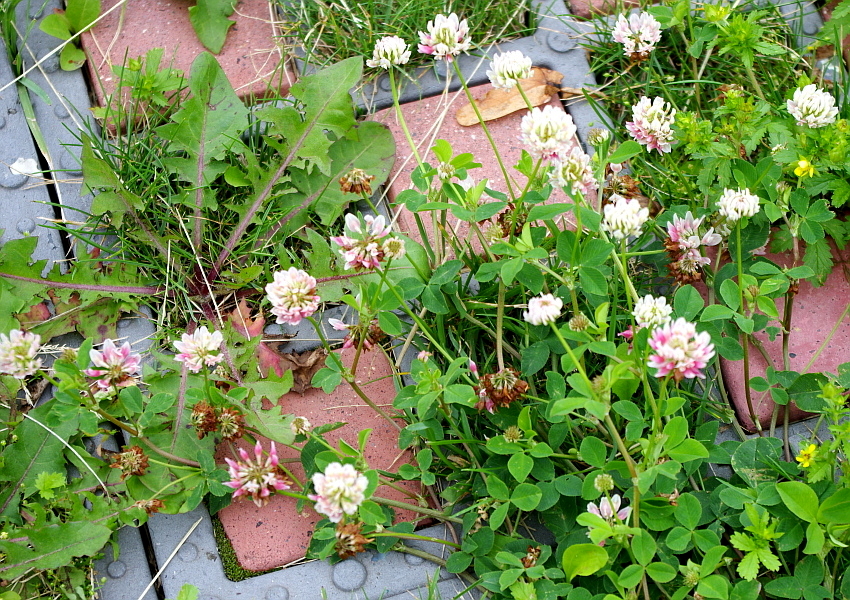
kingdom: Plantae
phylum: Tracheophyta
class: Magnoliopsida
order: Fabales
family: Fabaceae
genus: Trifolium
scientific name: Trifolium hybridum
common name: Alsike clover
